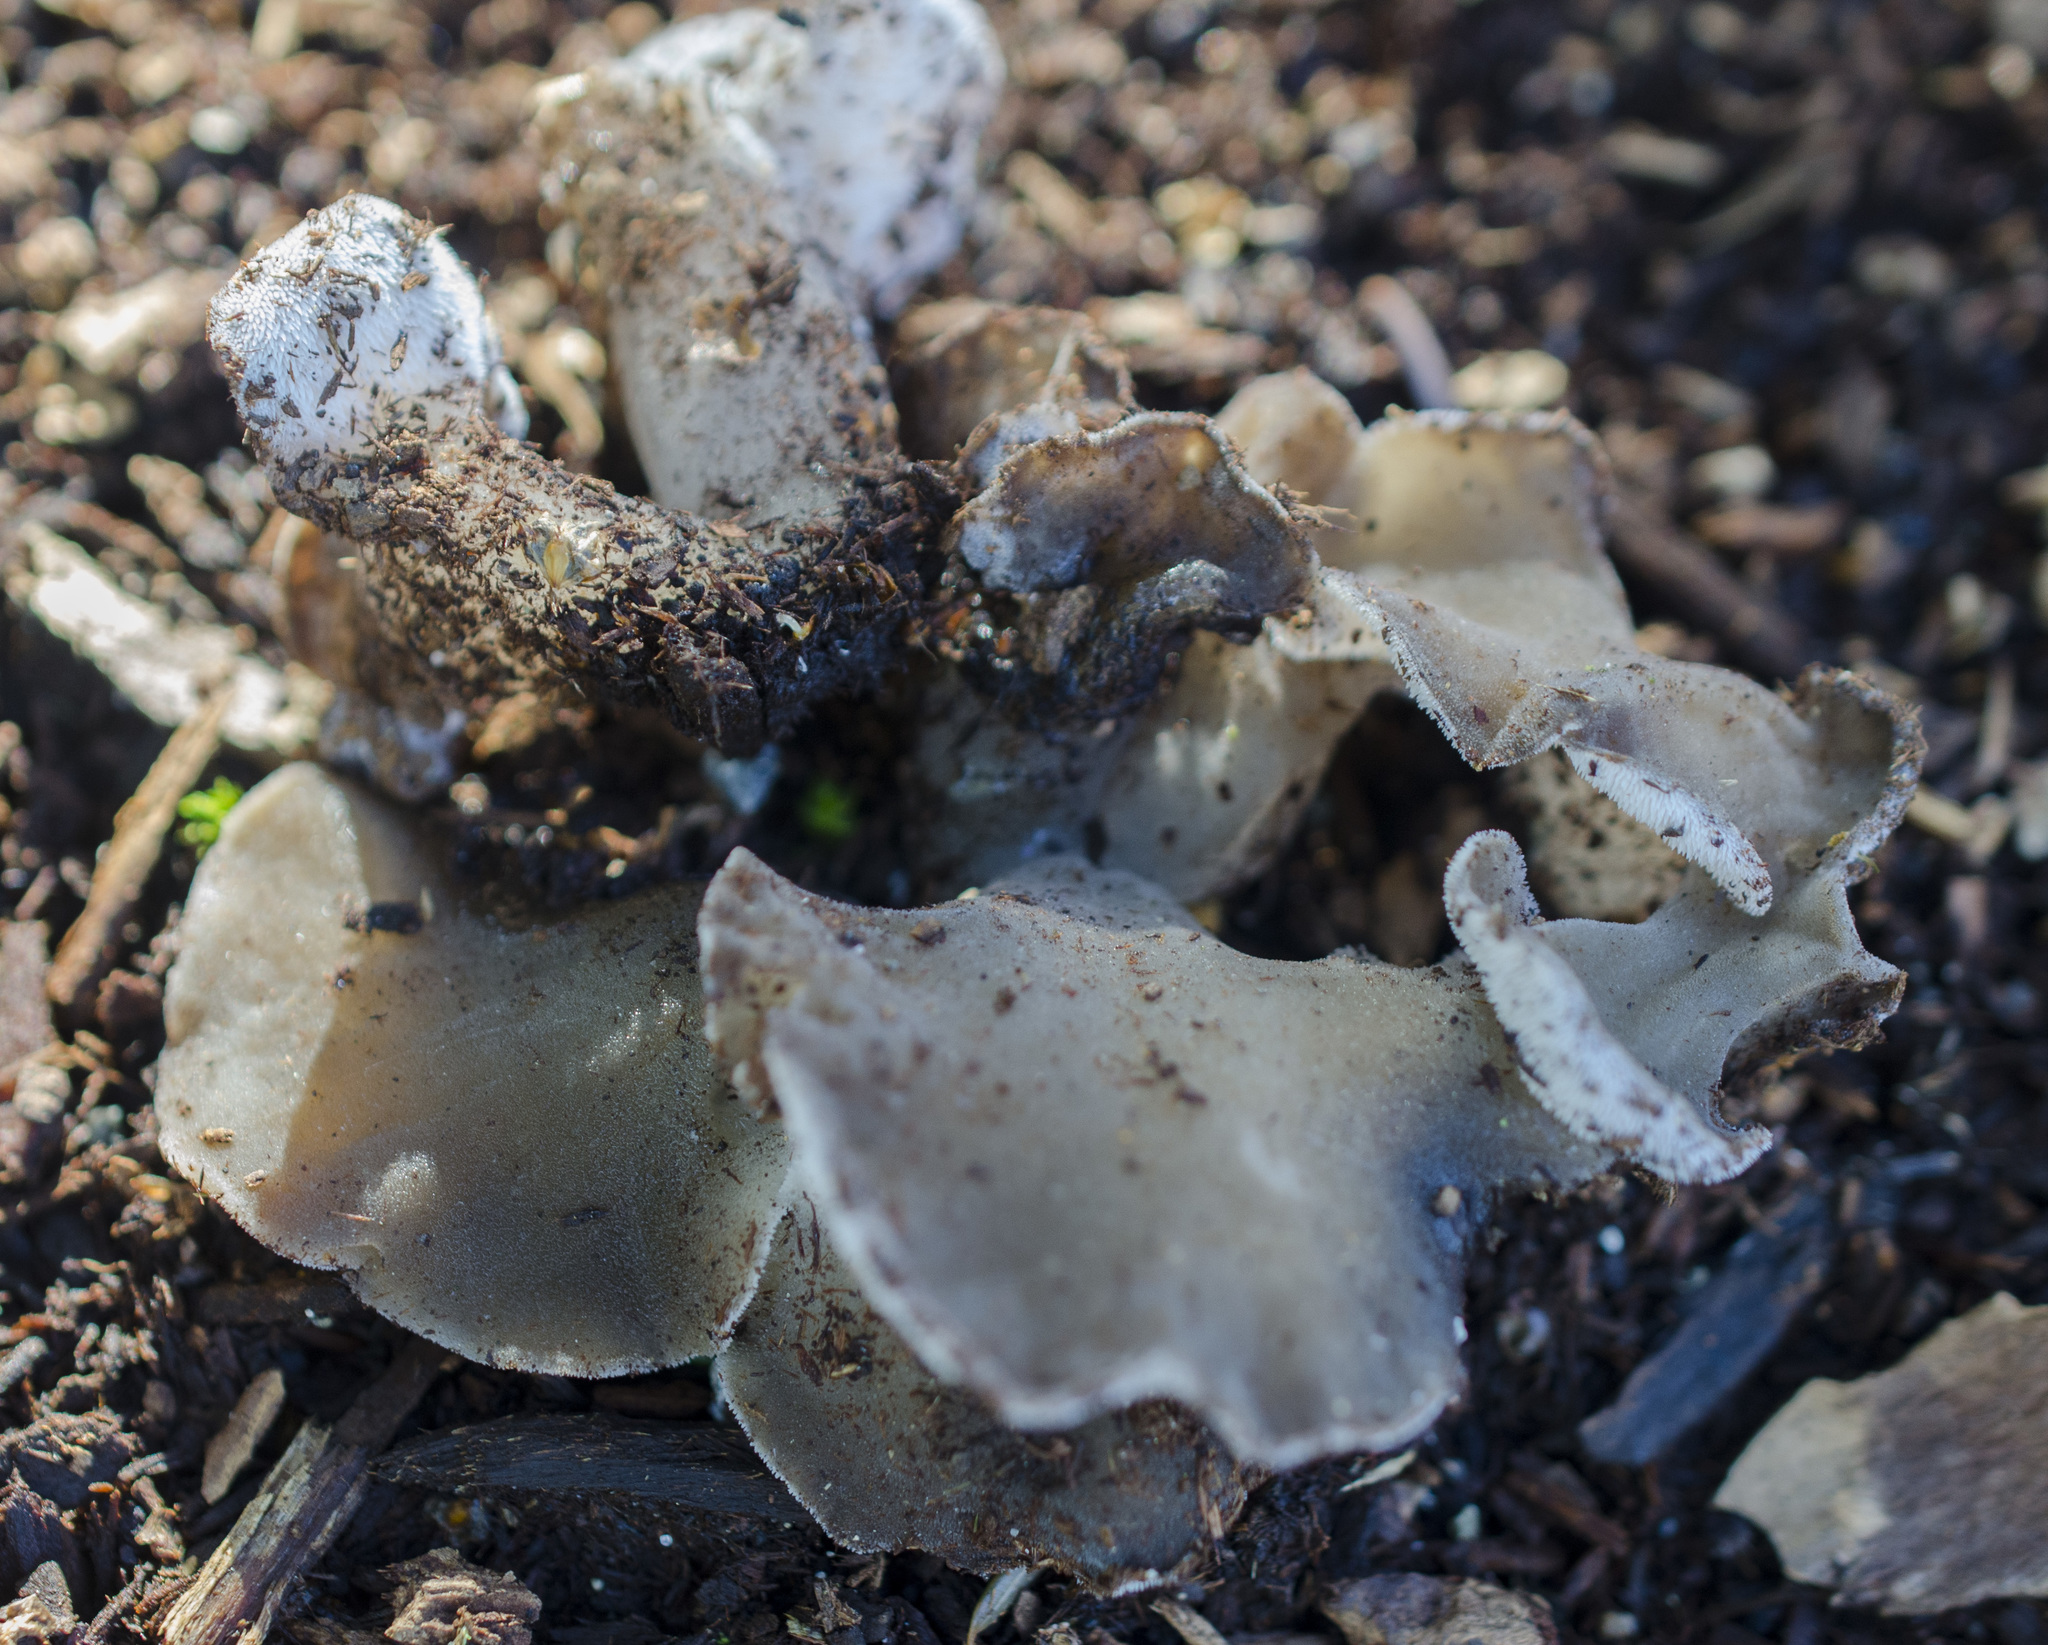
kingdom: Fungi
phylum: Basidiomycota
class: Agaricomycetes
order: Auriculariales
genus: Pseudohydnum
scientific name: Pseudohydnum gelatinosum
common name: Jelly tongue
